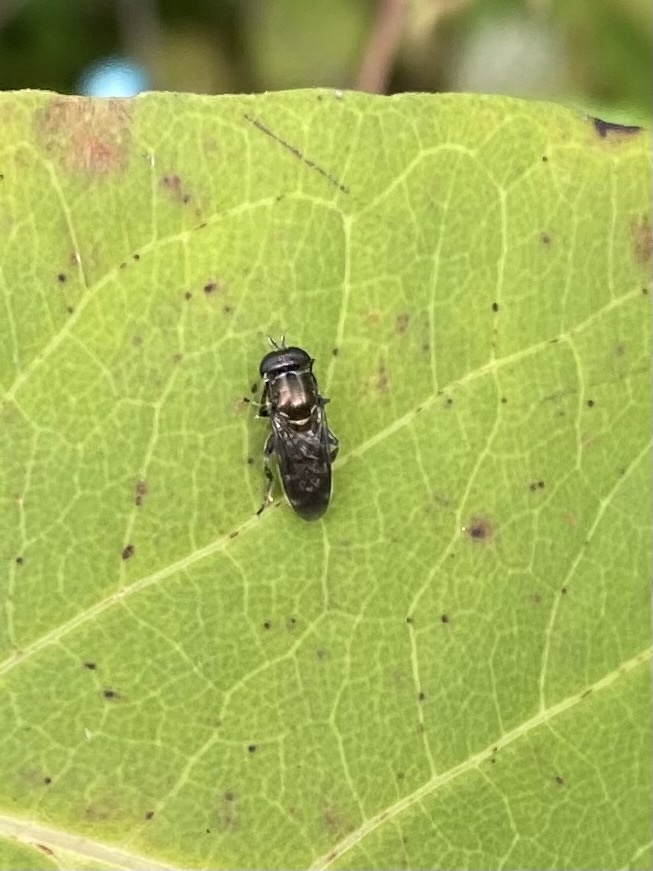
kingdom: Animalia
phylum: Arthropoda
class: Insecta
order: Diptera
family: Syrphidae
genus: Eumerus
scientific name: Eumerus
